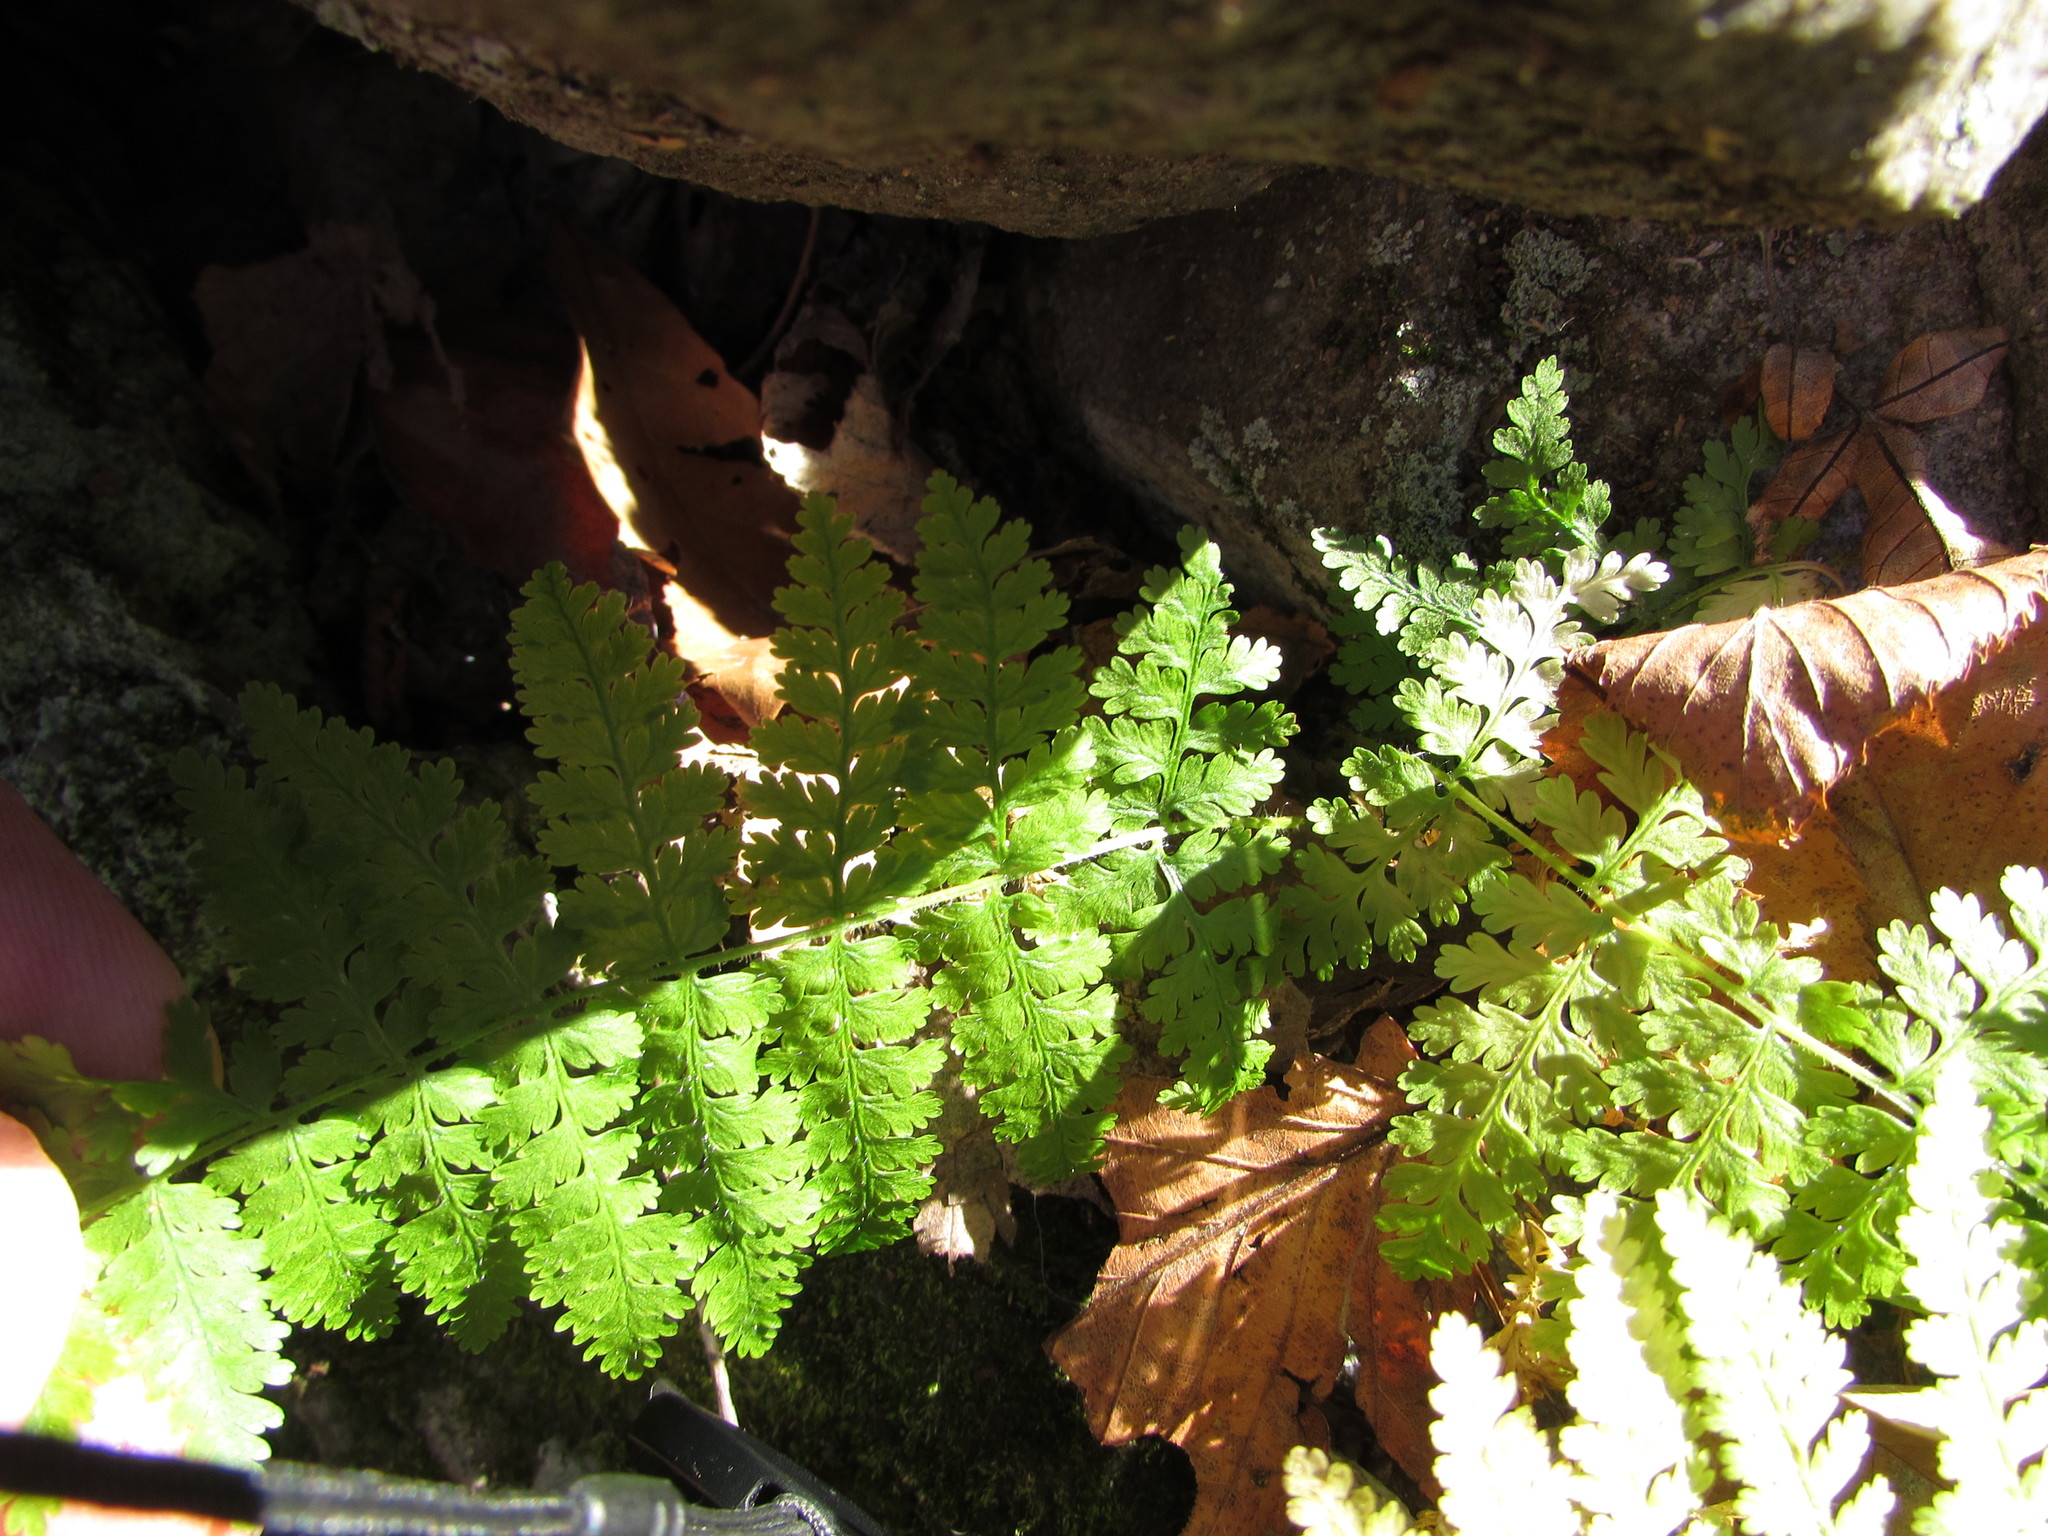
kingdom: Plantae
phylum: Tracheophyta
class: Polypodiopsida
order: Polypodiales
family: Dryopteridaceae
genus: Dryopteris
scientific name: Dryopteris intermedia
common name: Evergreen wood fern
